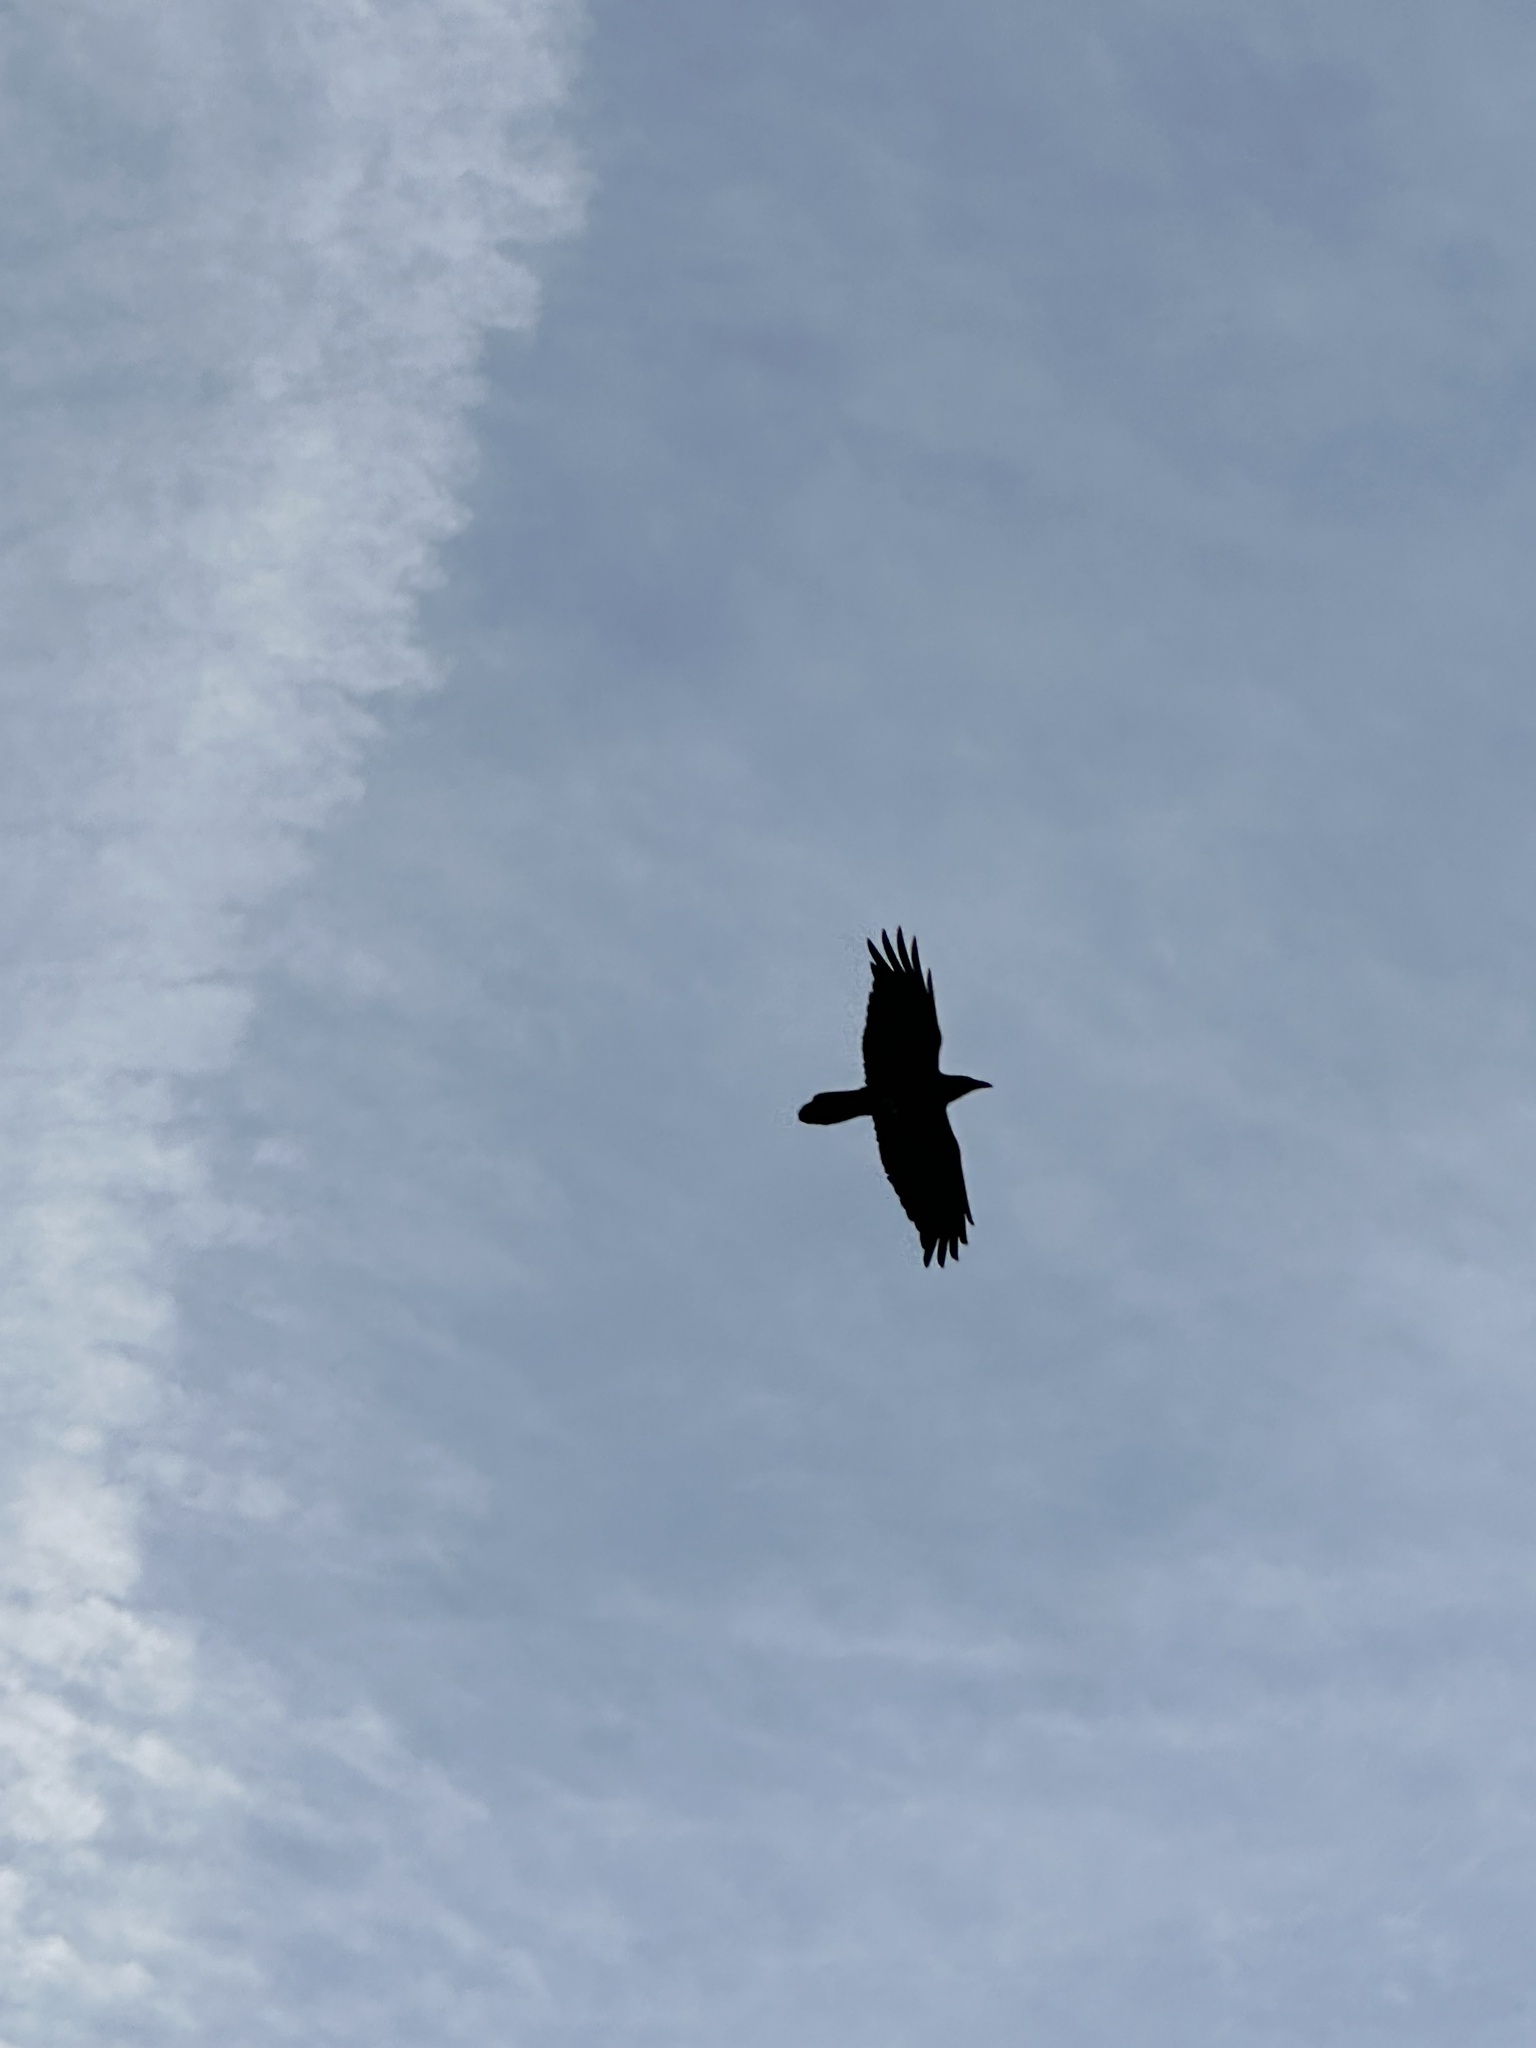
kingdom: Animalia
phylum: Chordata
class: Aves
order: Passeriformes
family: Corvidae
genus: Corvus
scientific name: Corvus corax
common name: Common raven
